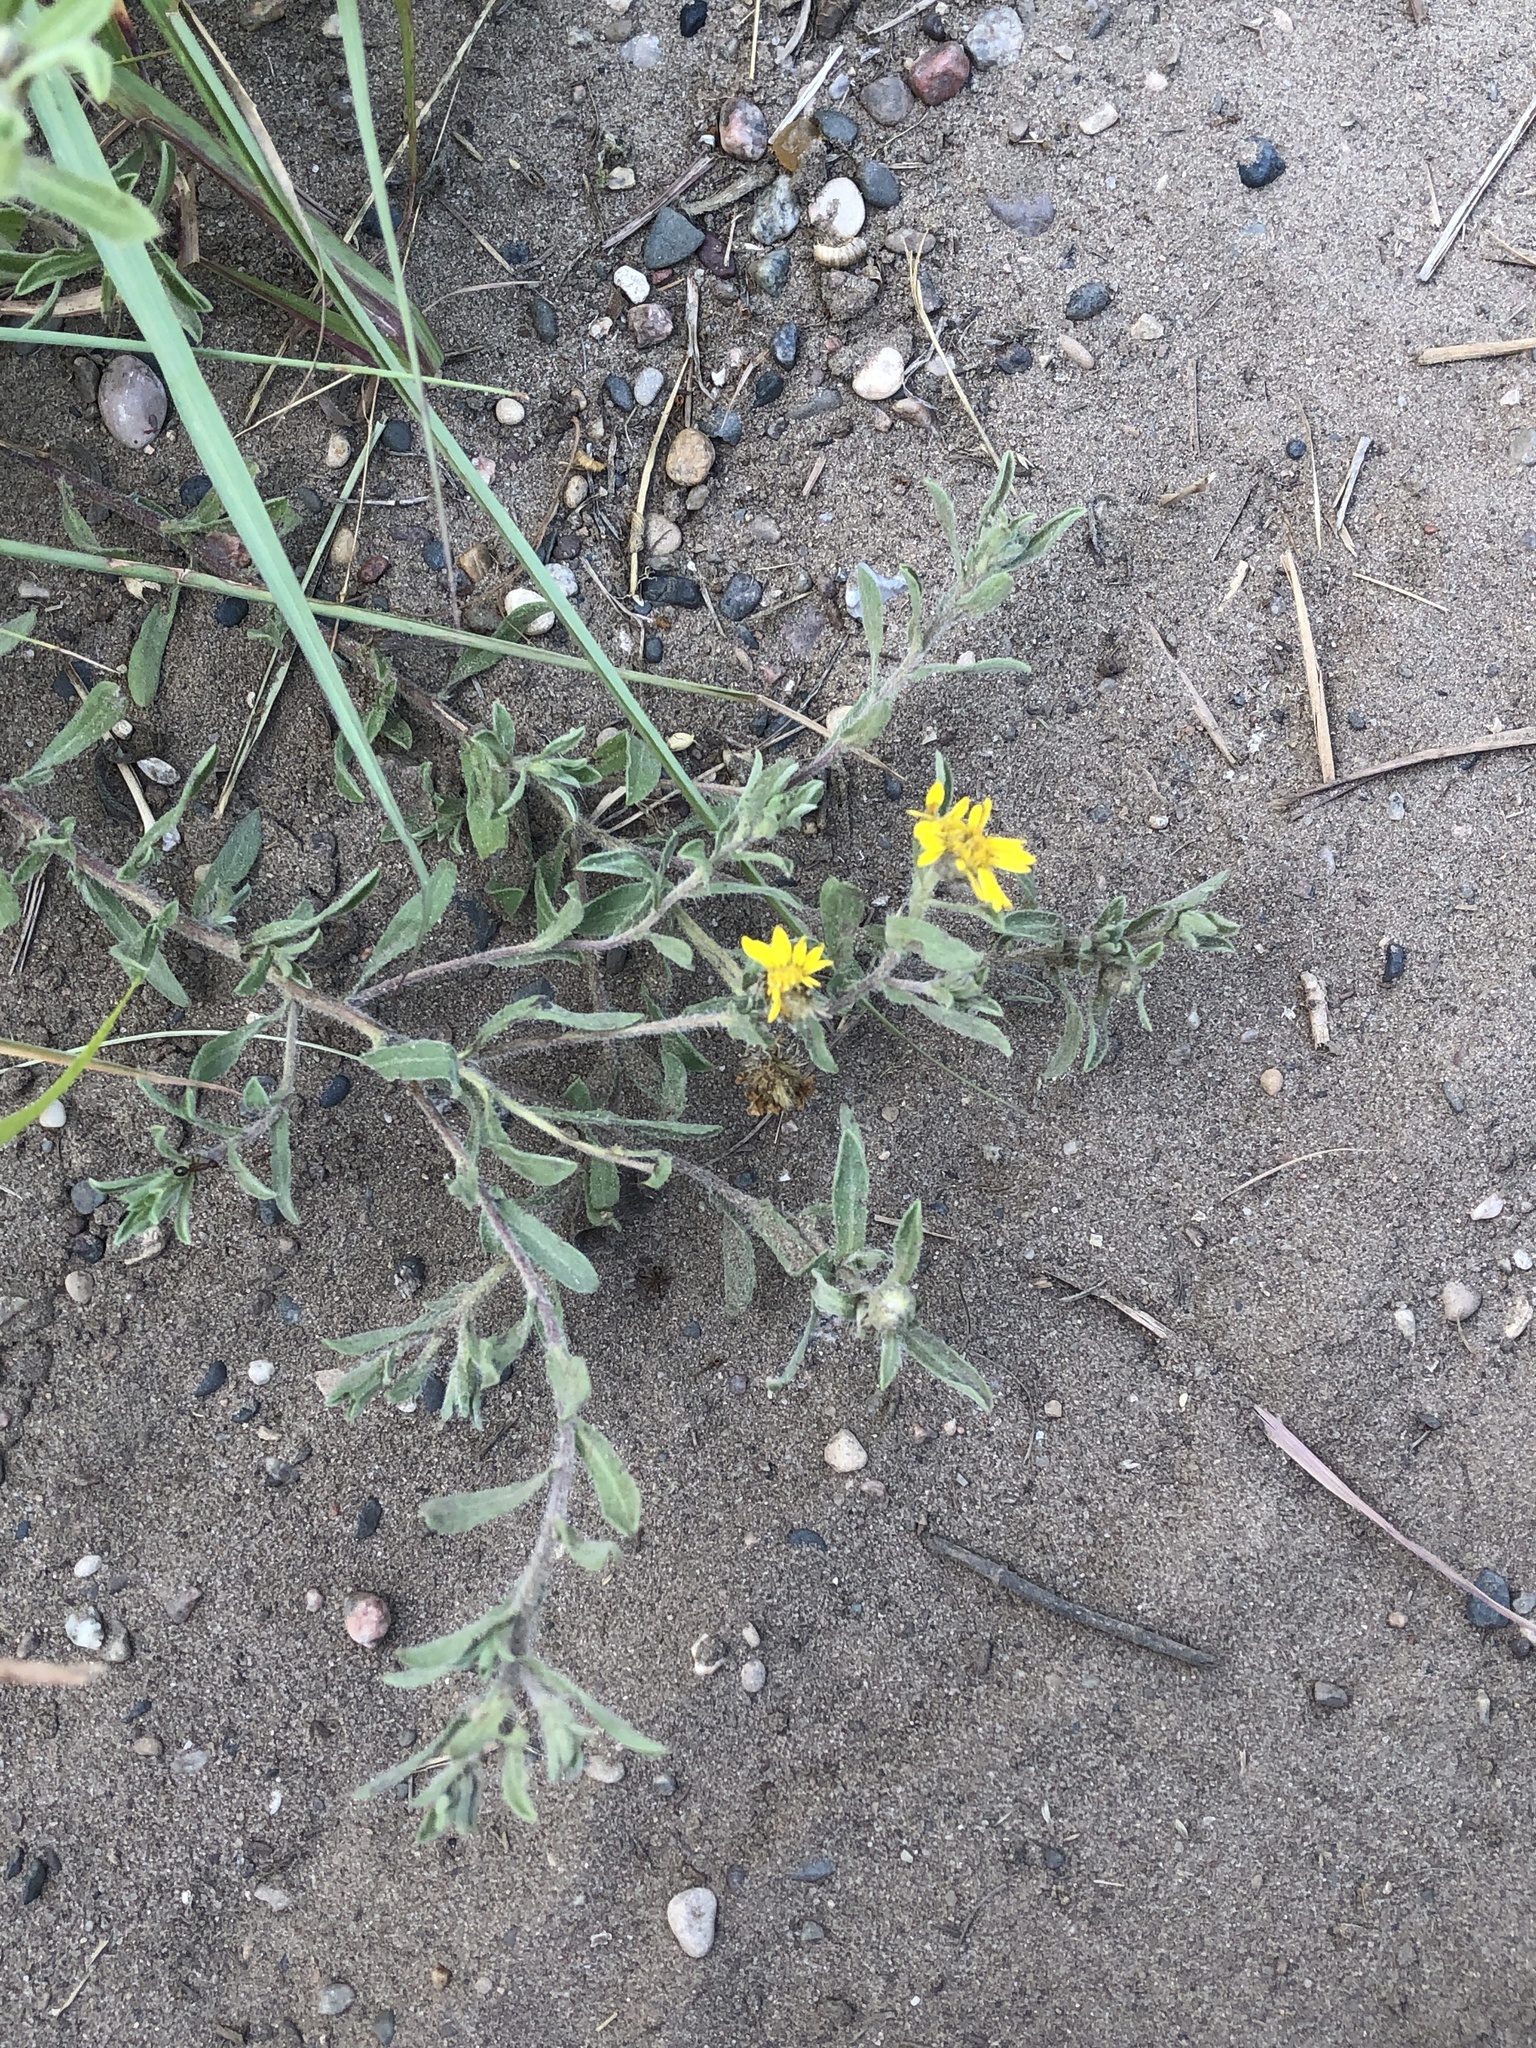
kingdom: Plantae
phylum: Tracheophyta
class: Magnoliopsida
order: Asterales
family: Asteraceae
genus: Heterotheca
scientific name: Heterotheca villosa
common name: Hairy false goldenaster
